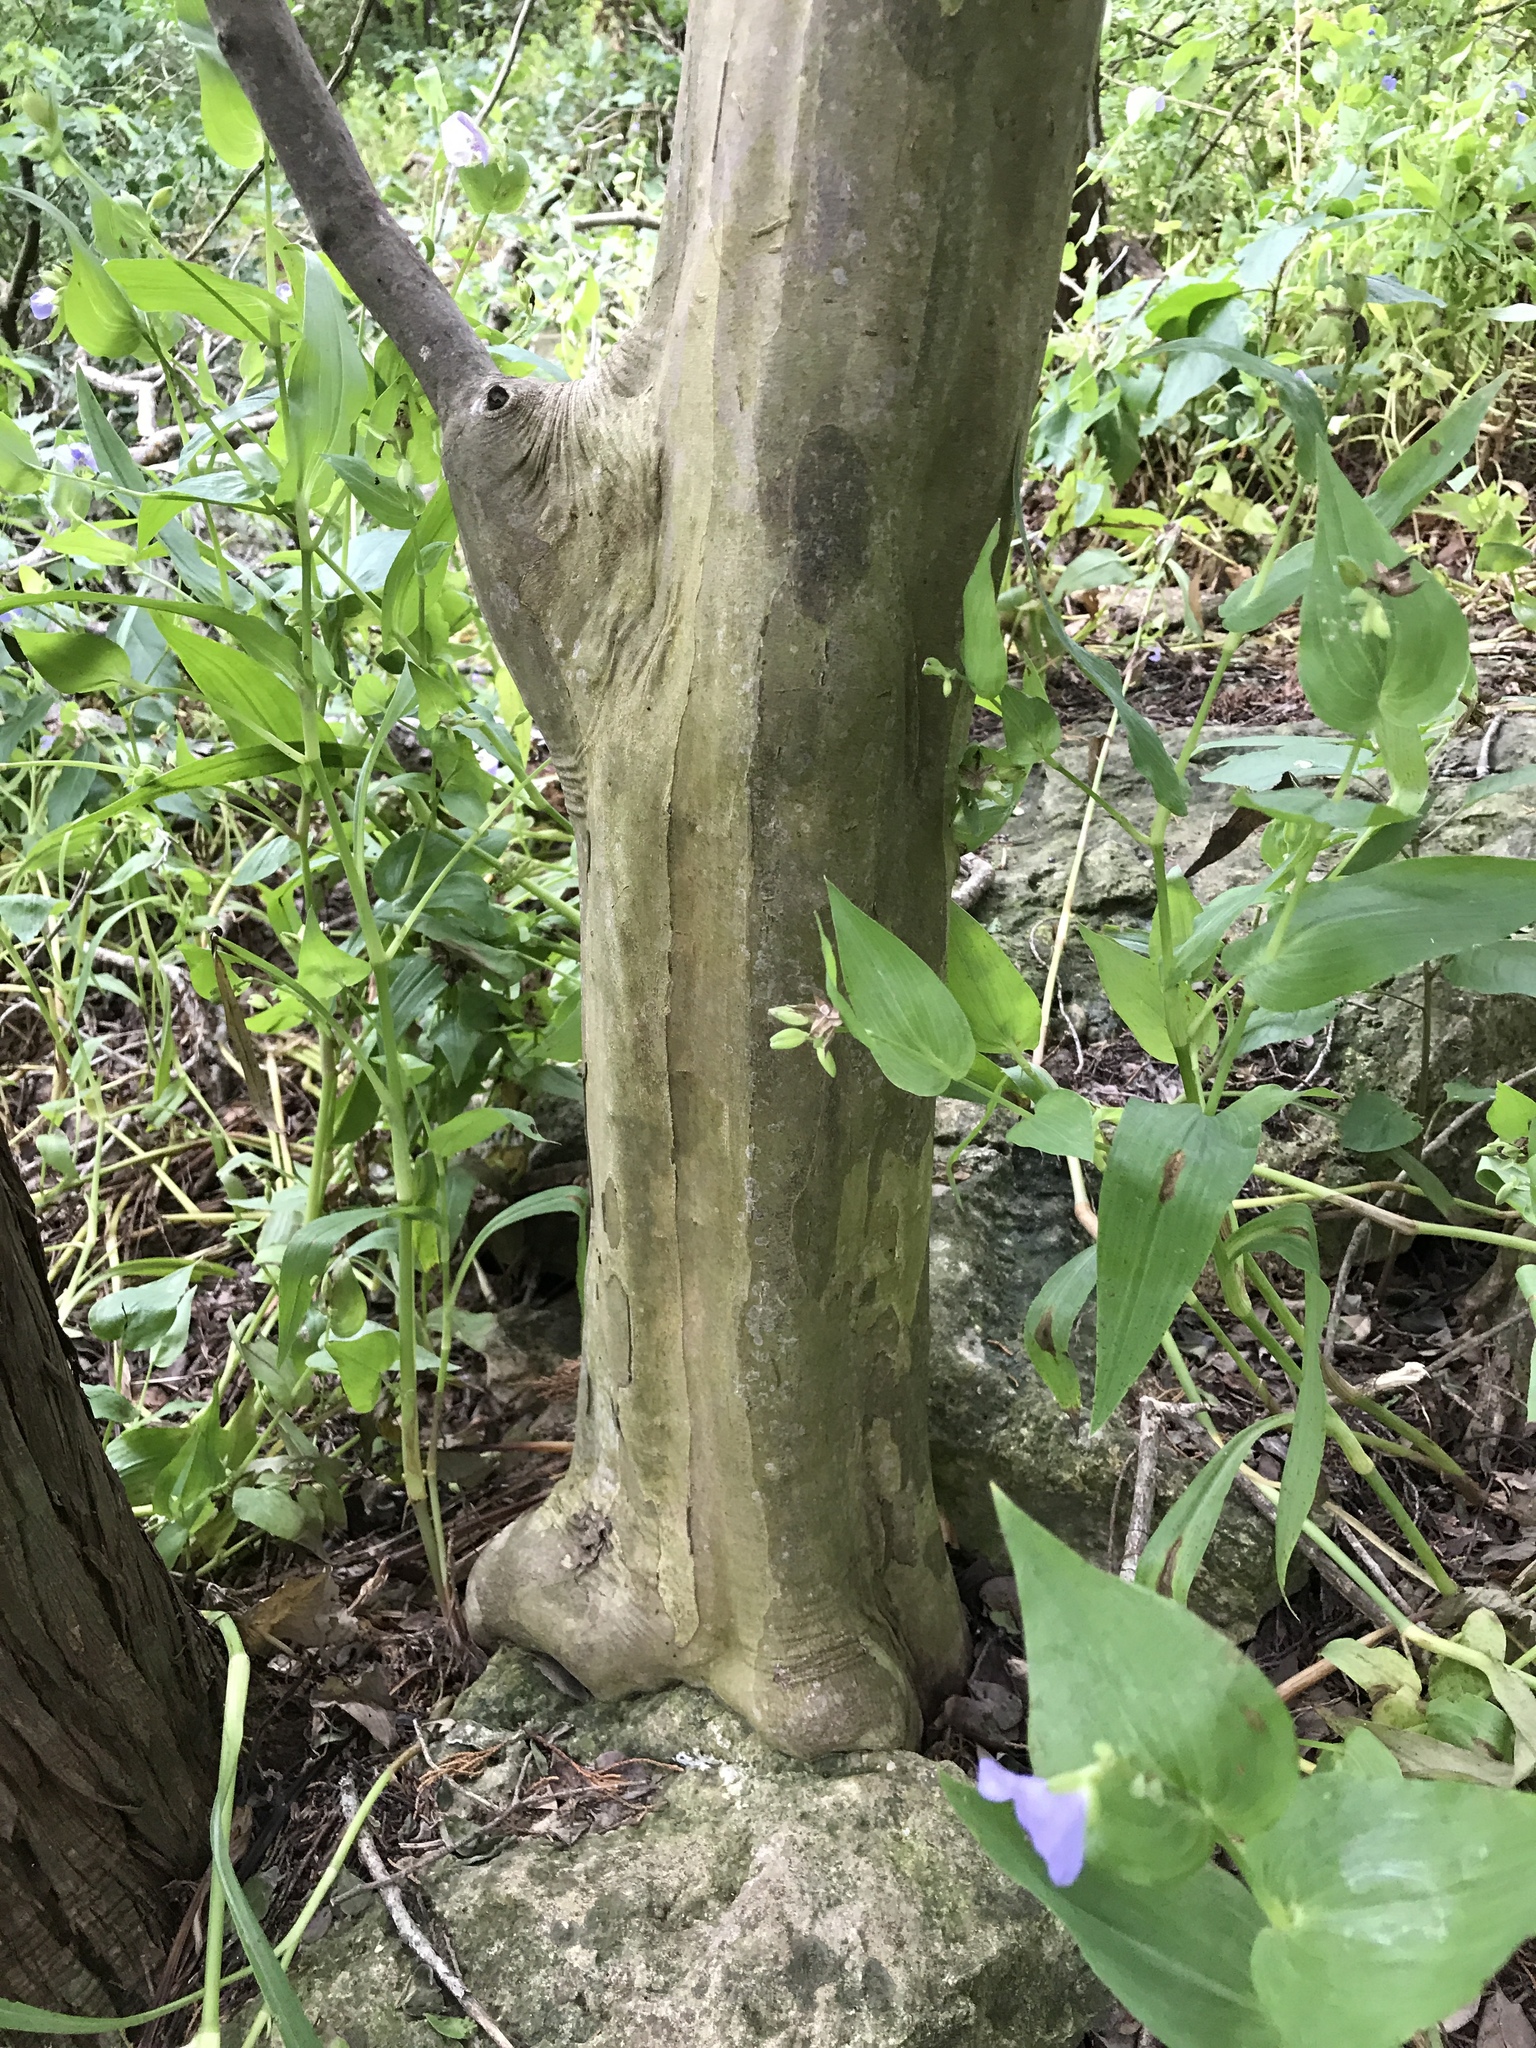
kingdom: Plantae
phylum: Tracheophyta
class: Magnoliopsida
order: Ericales
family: Ebenaceae
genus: Diospyros
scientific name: Diospyros texana
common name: Texas persimmon
